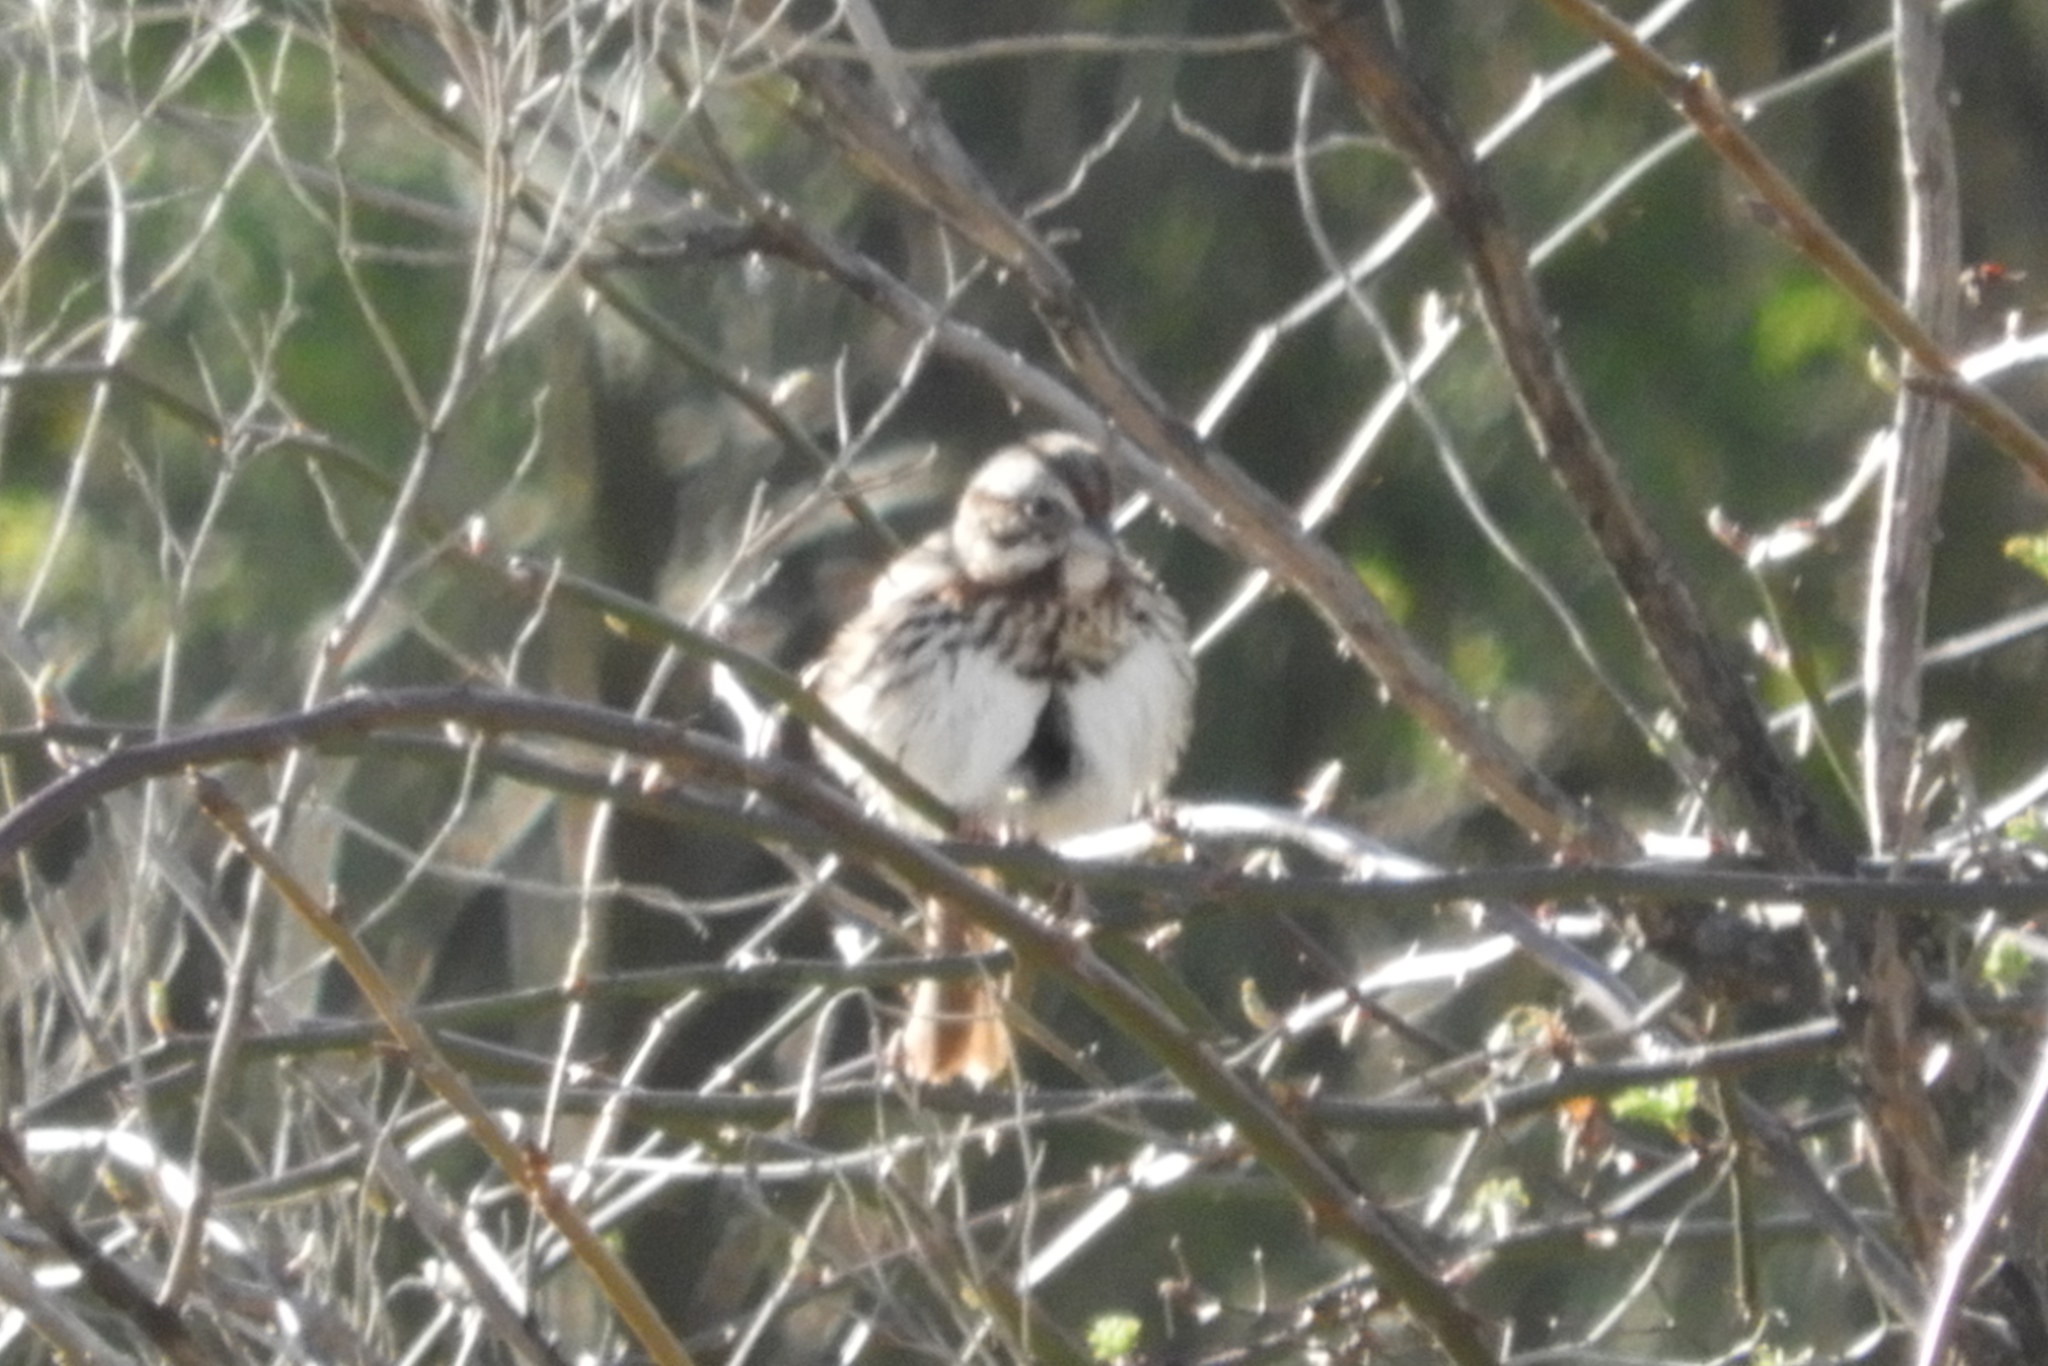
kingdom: Animalia
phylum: Chordata
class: Aves
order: Passeriformes
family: Passerellidae
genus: Melospiza
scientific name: Melospiza melodia
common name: Song sparrow
